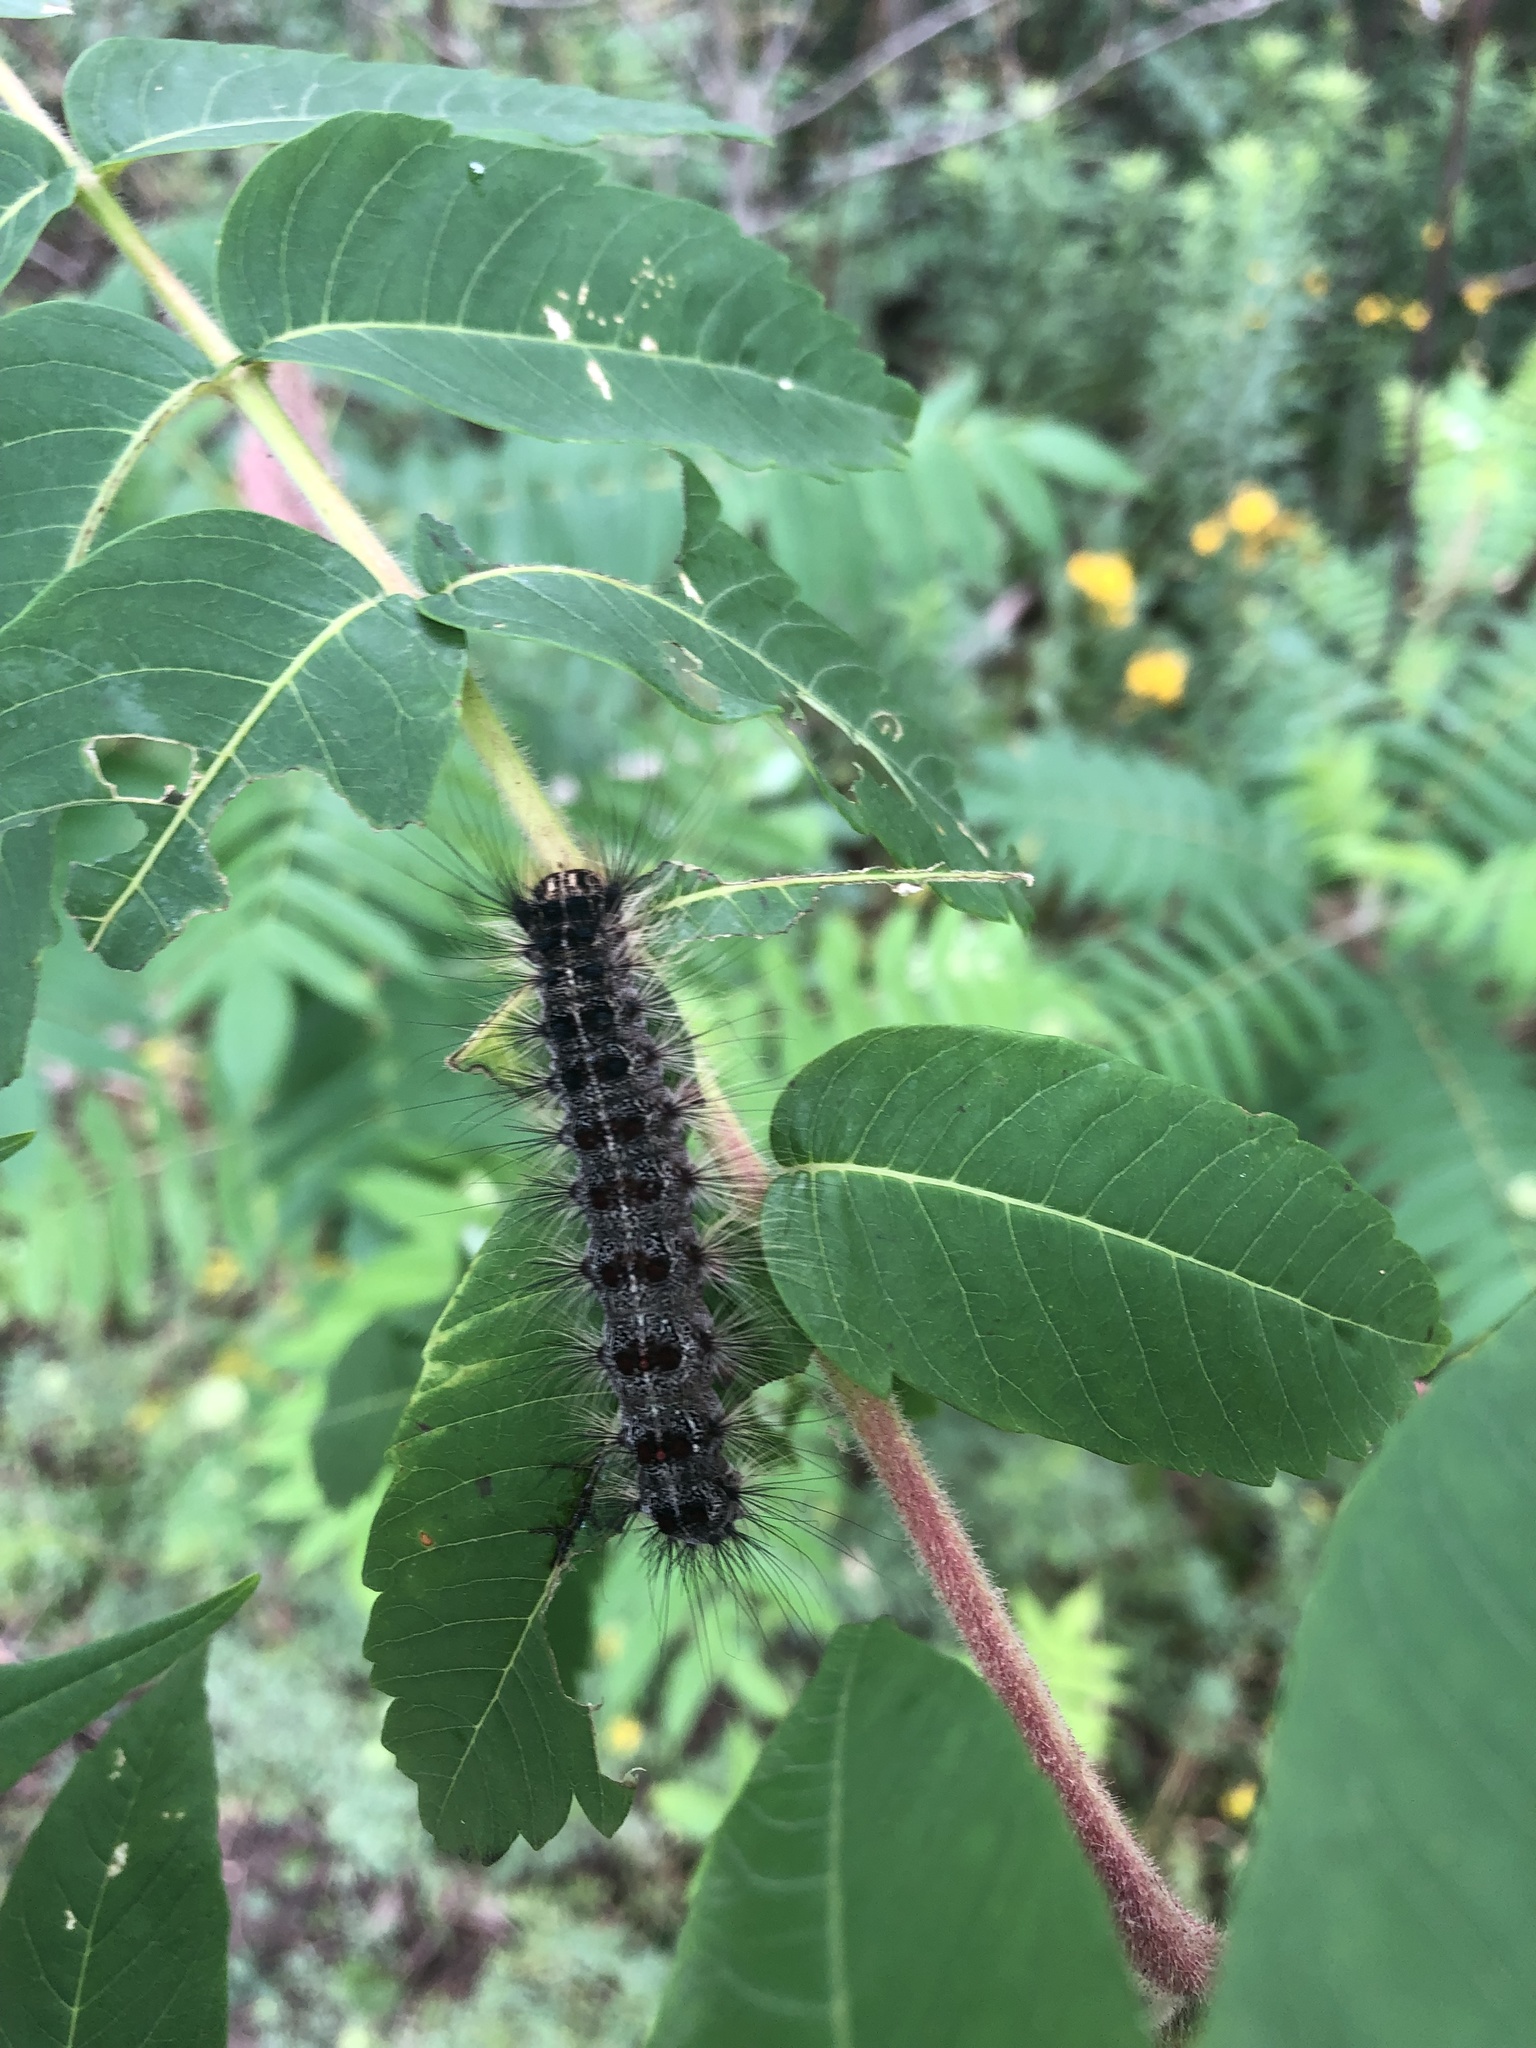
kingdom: Animalia
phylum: Arthropoda
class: Insecta
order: Lepidoptera
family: Erebidae
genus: Lymantria
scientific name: Lymantria dispar
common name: Gypsy moth
